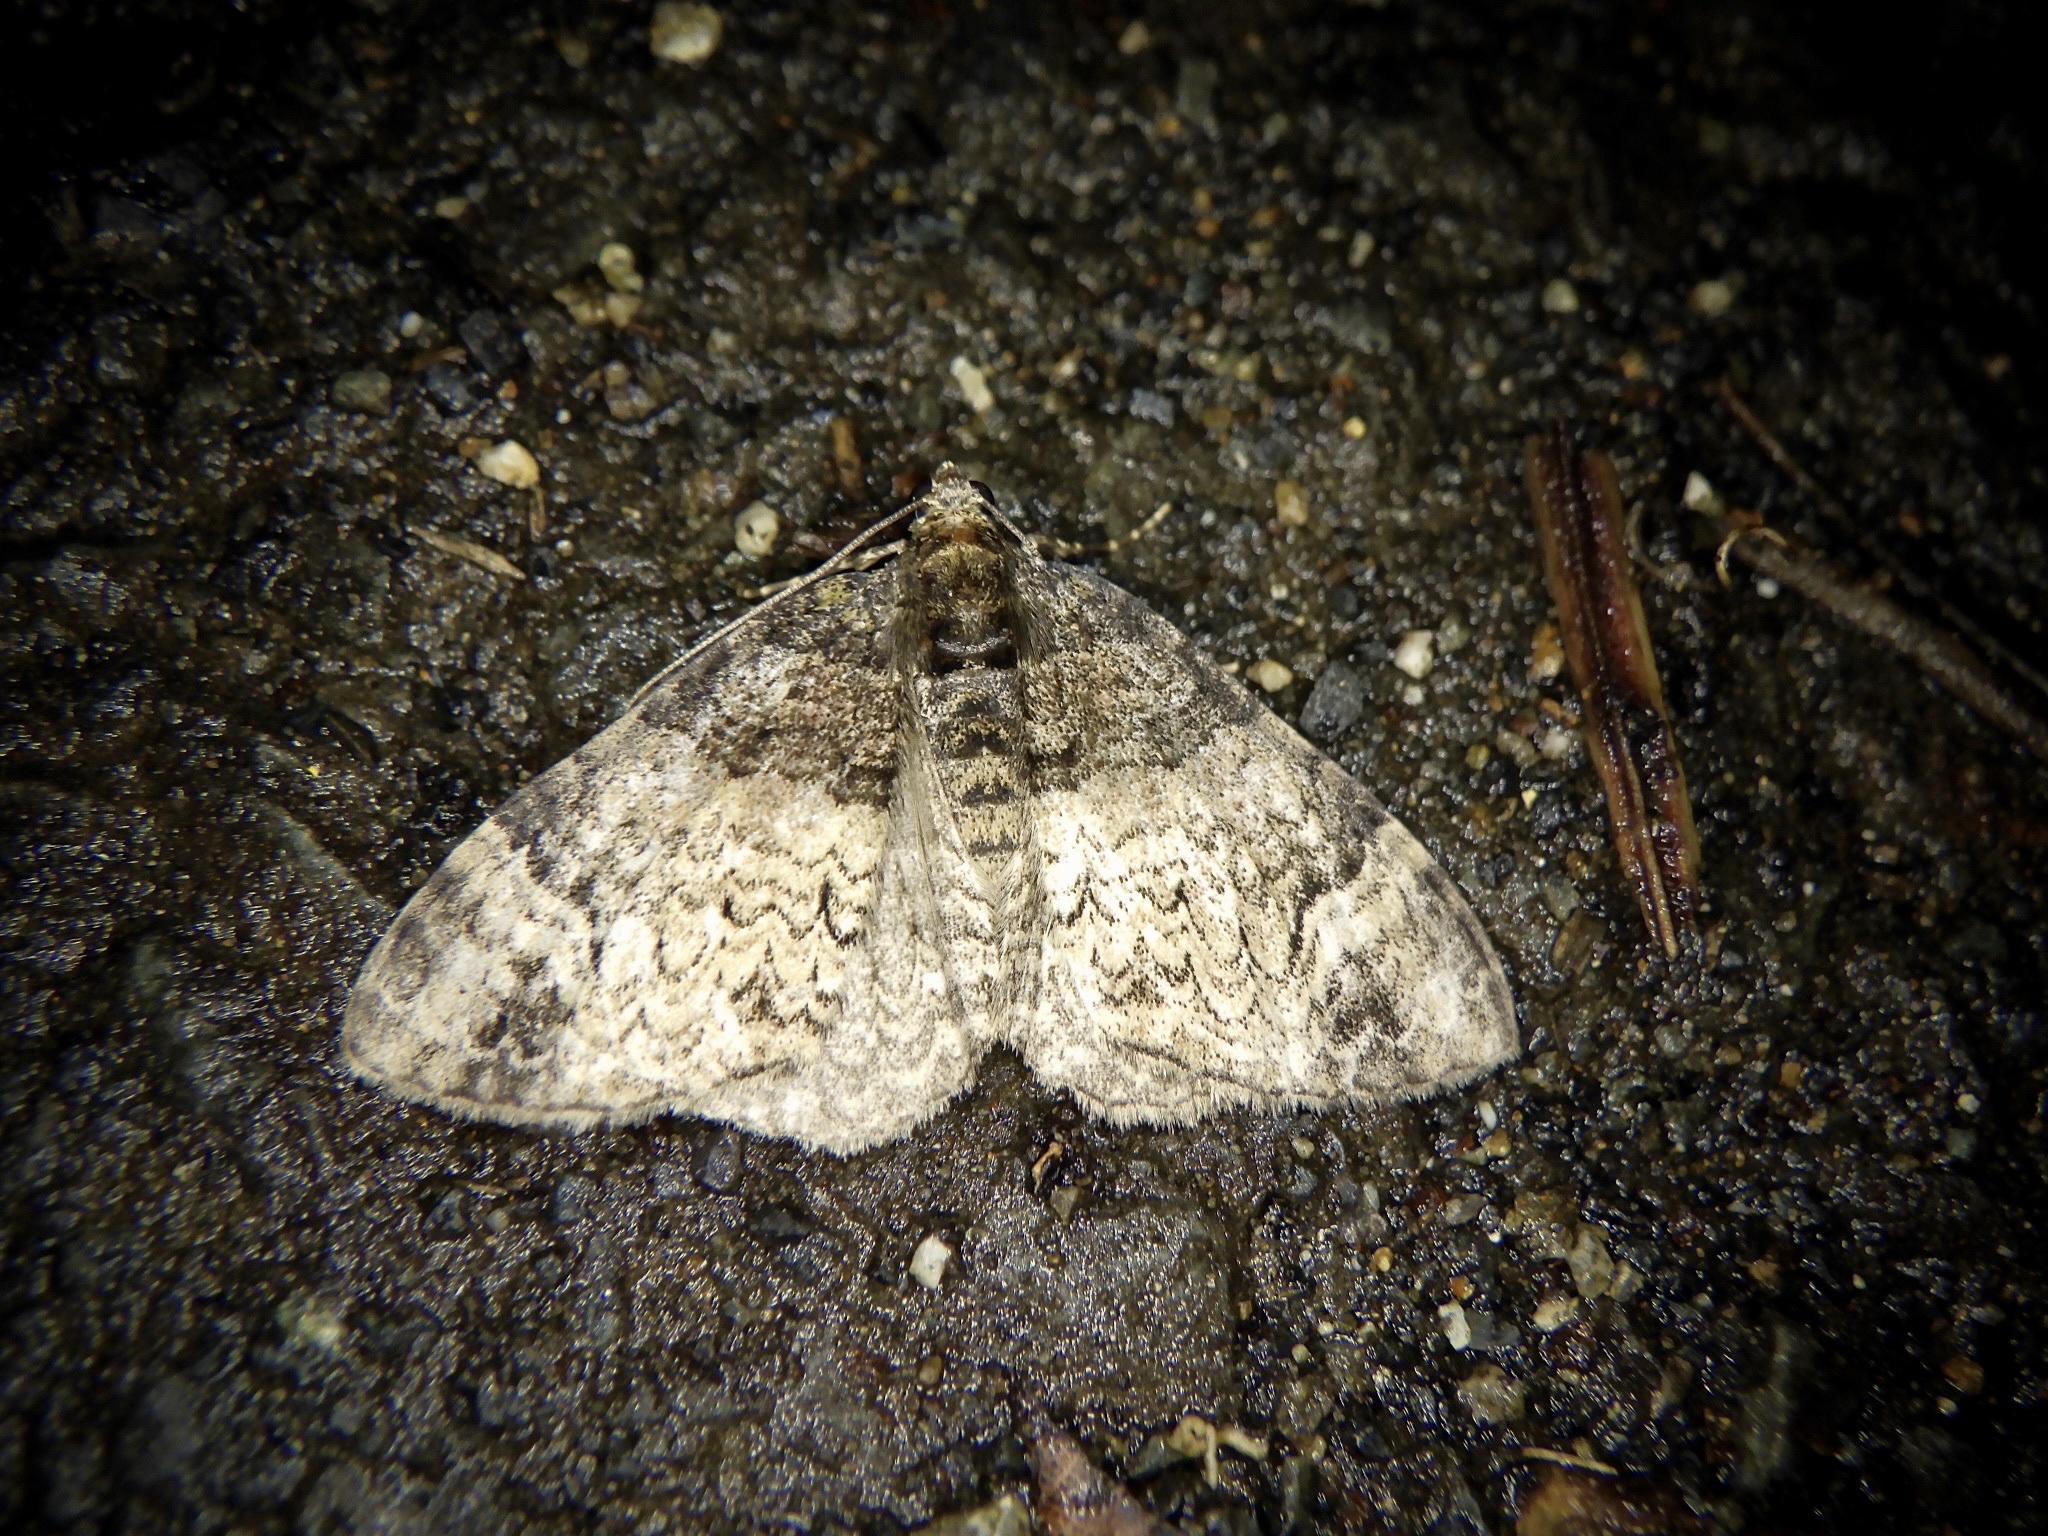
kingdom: Animalia
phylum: Arthropoda
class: Insecta
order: Lepidoptera
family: Geometridae
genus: Microcalcarifera
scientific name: Microcalcarifera obscura
